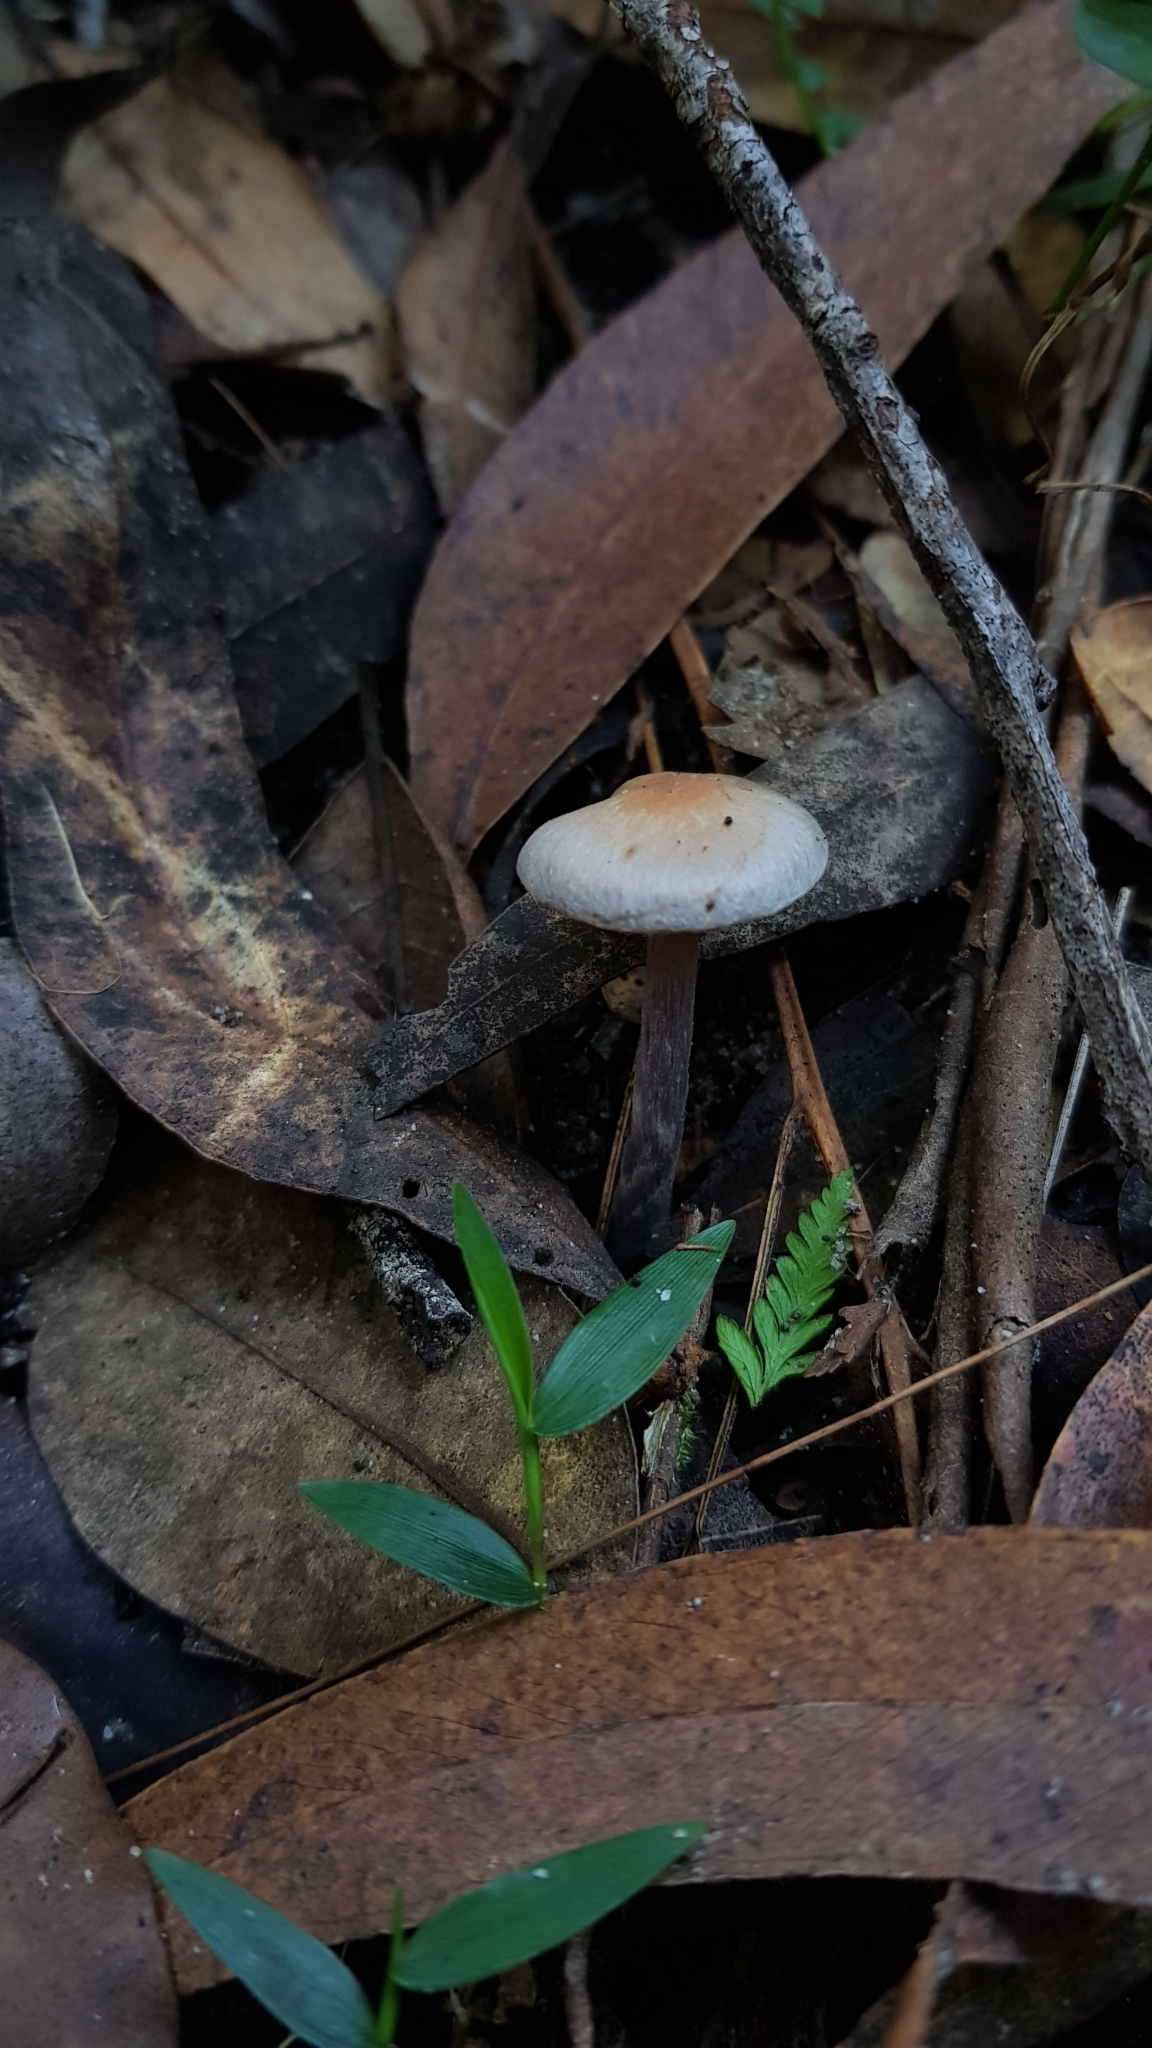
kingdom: Fungi
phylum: Basidiomycota
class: Agaricomycetes
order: Agaricales
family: Cortinariaceae
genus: Cortinarius
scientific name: Cortinarius rotundisporus
